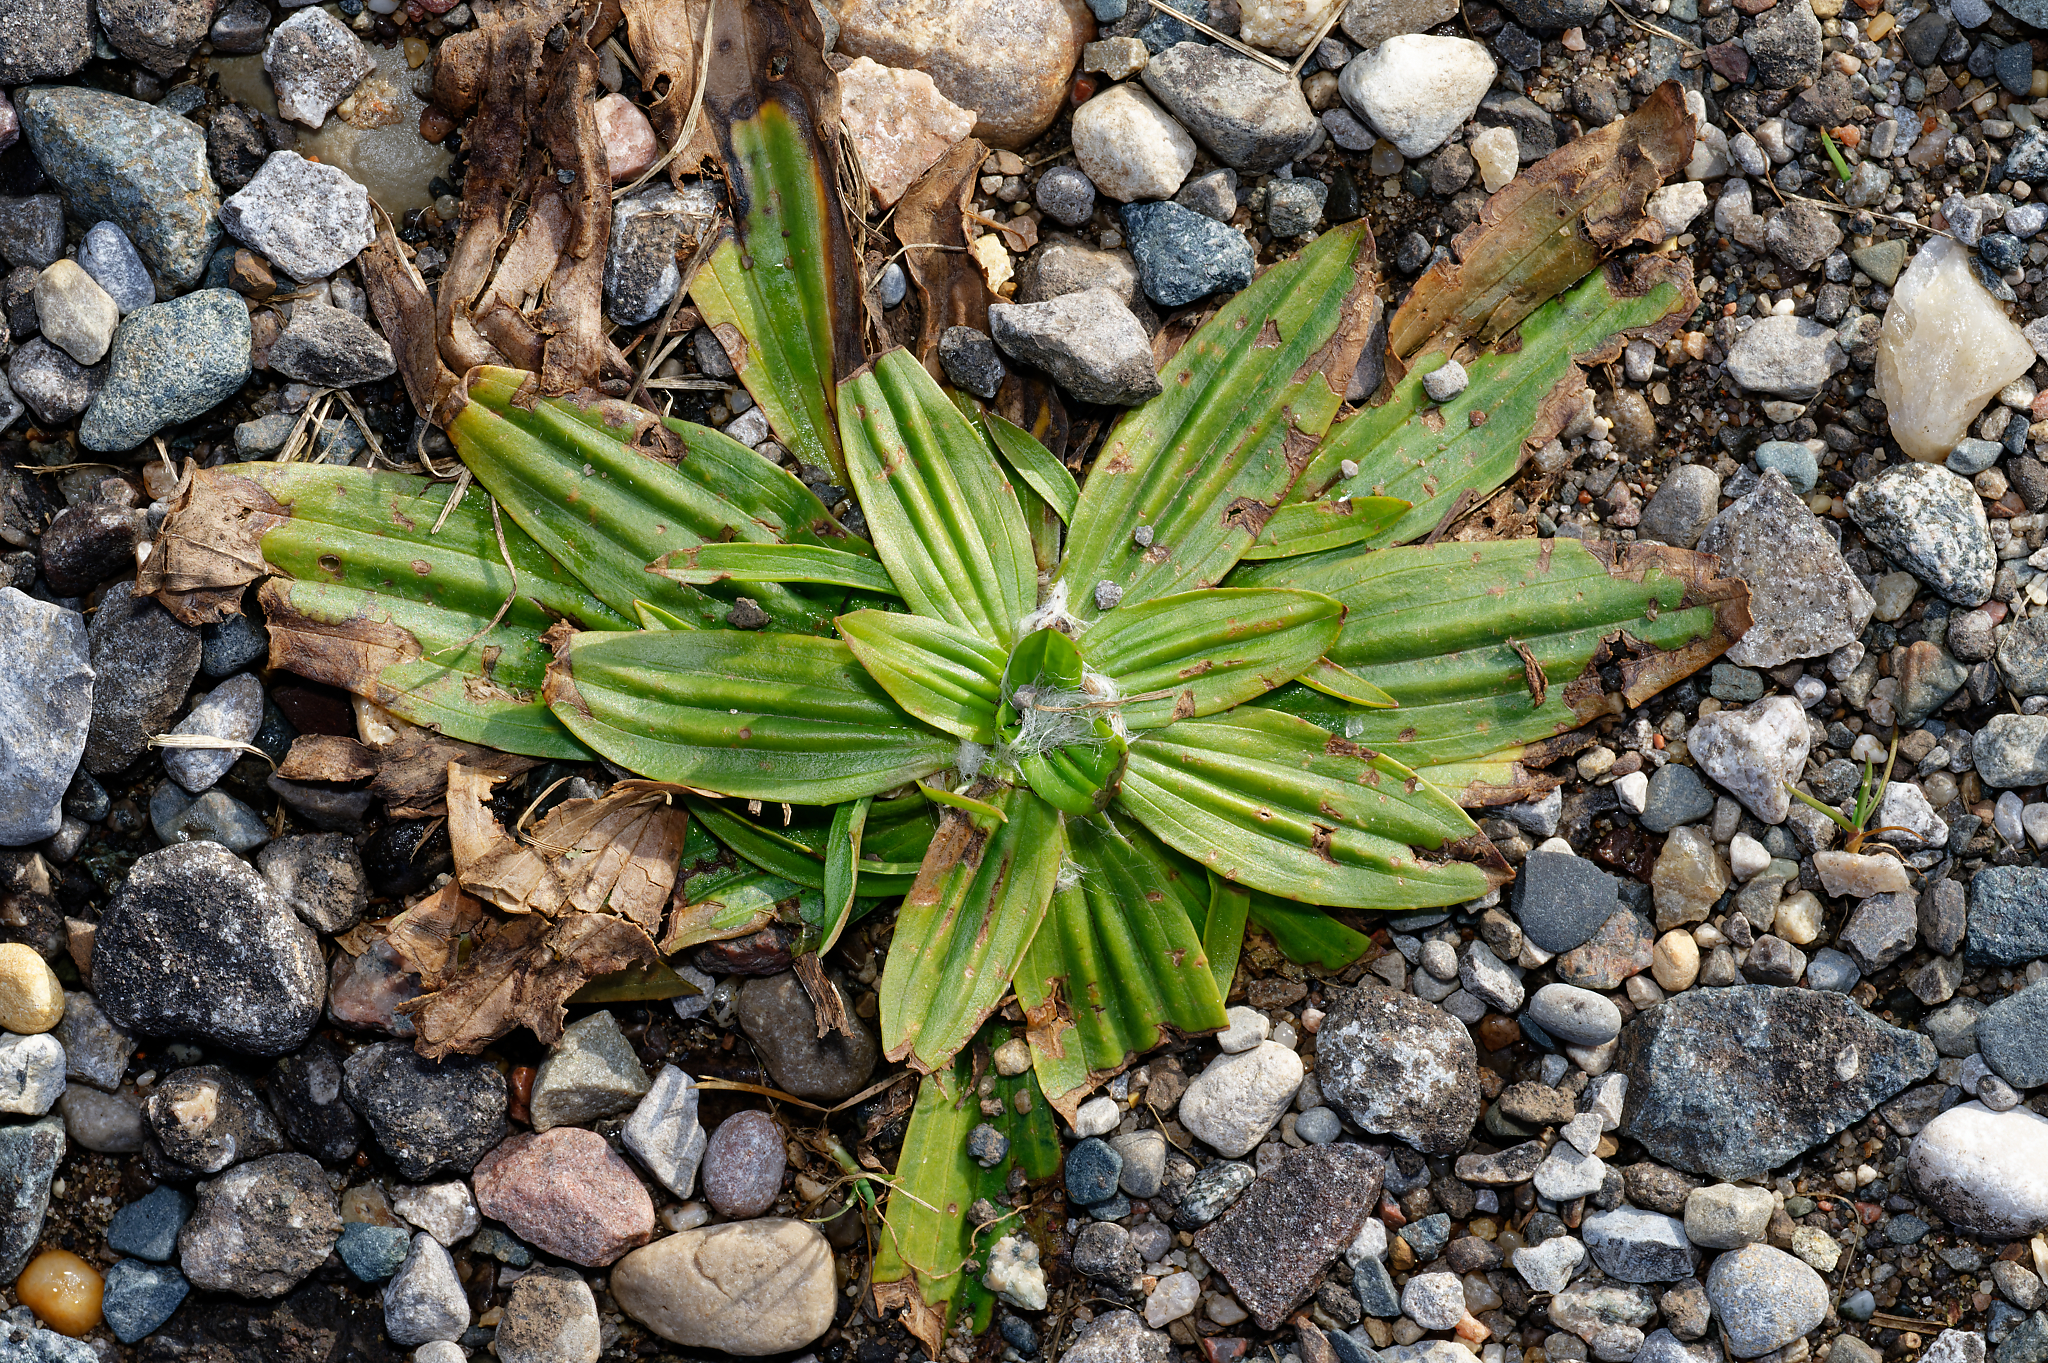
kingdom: Plantae
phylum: Tracheophyta
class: Magnoliopsida
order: Lamiales
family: Plantaginaceae
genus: Plantago
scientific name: Plantago lanceolata
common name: Ribwort plantain
